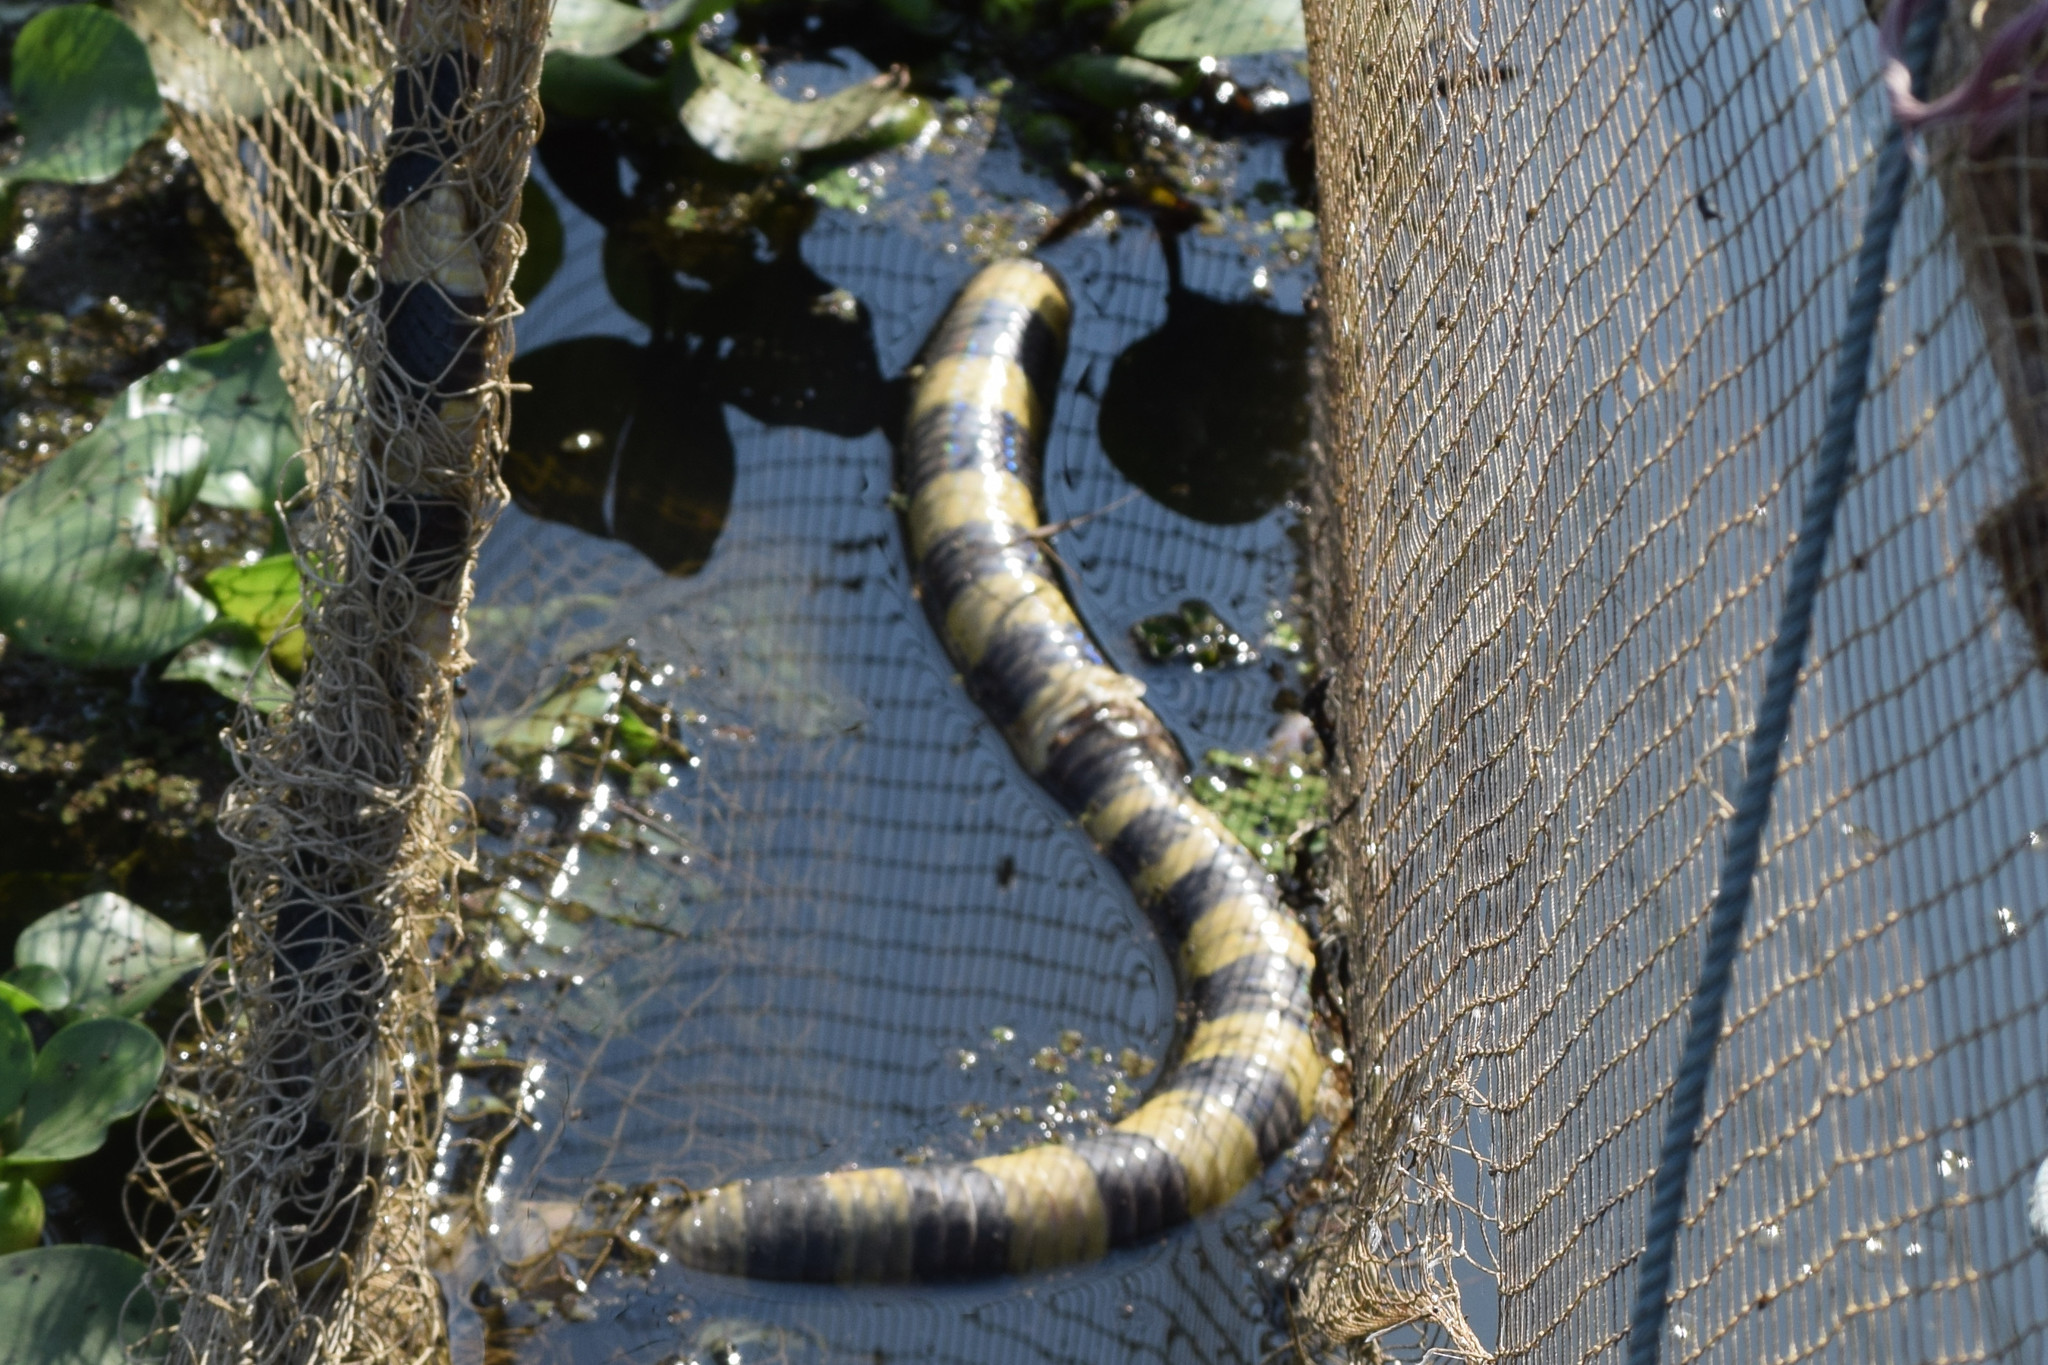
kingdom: Animalia
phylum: Chordata
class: Squamata
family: Elapidae
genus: Bungarus
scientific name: Bungarus fasciatus
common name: Banded krait
